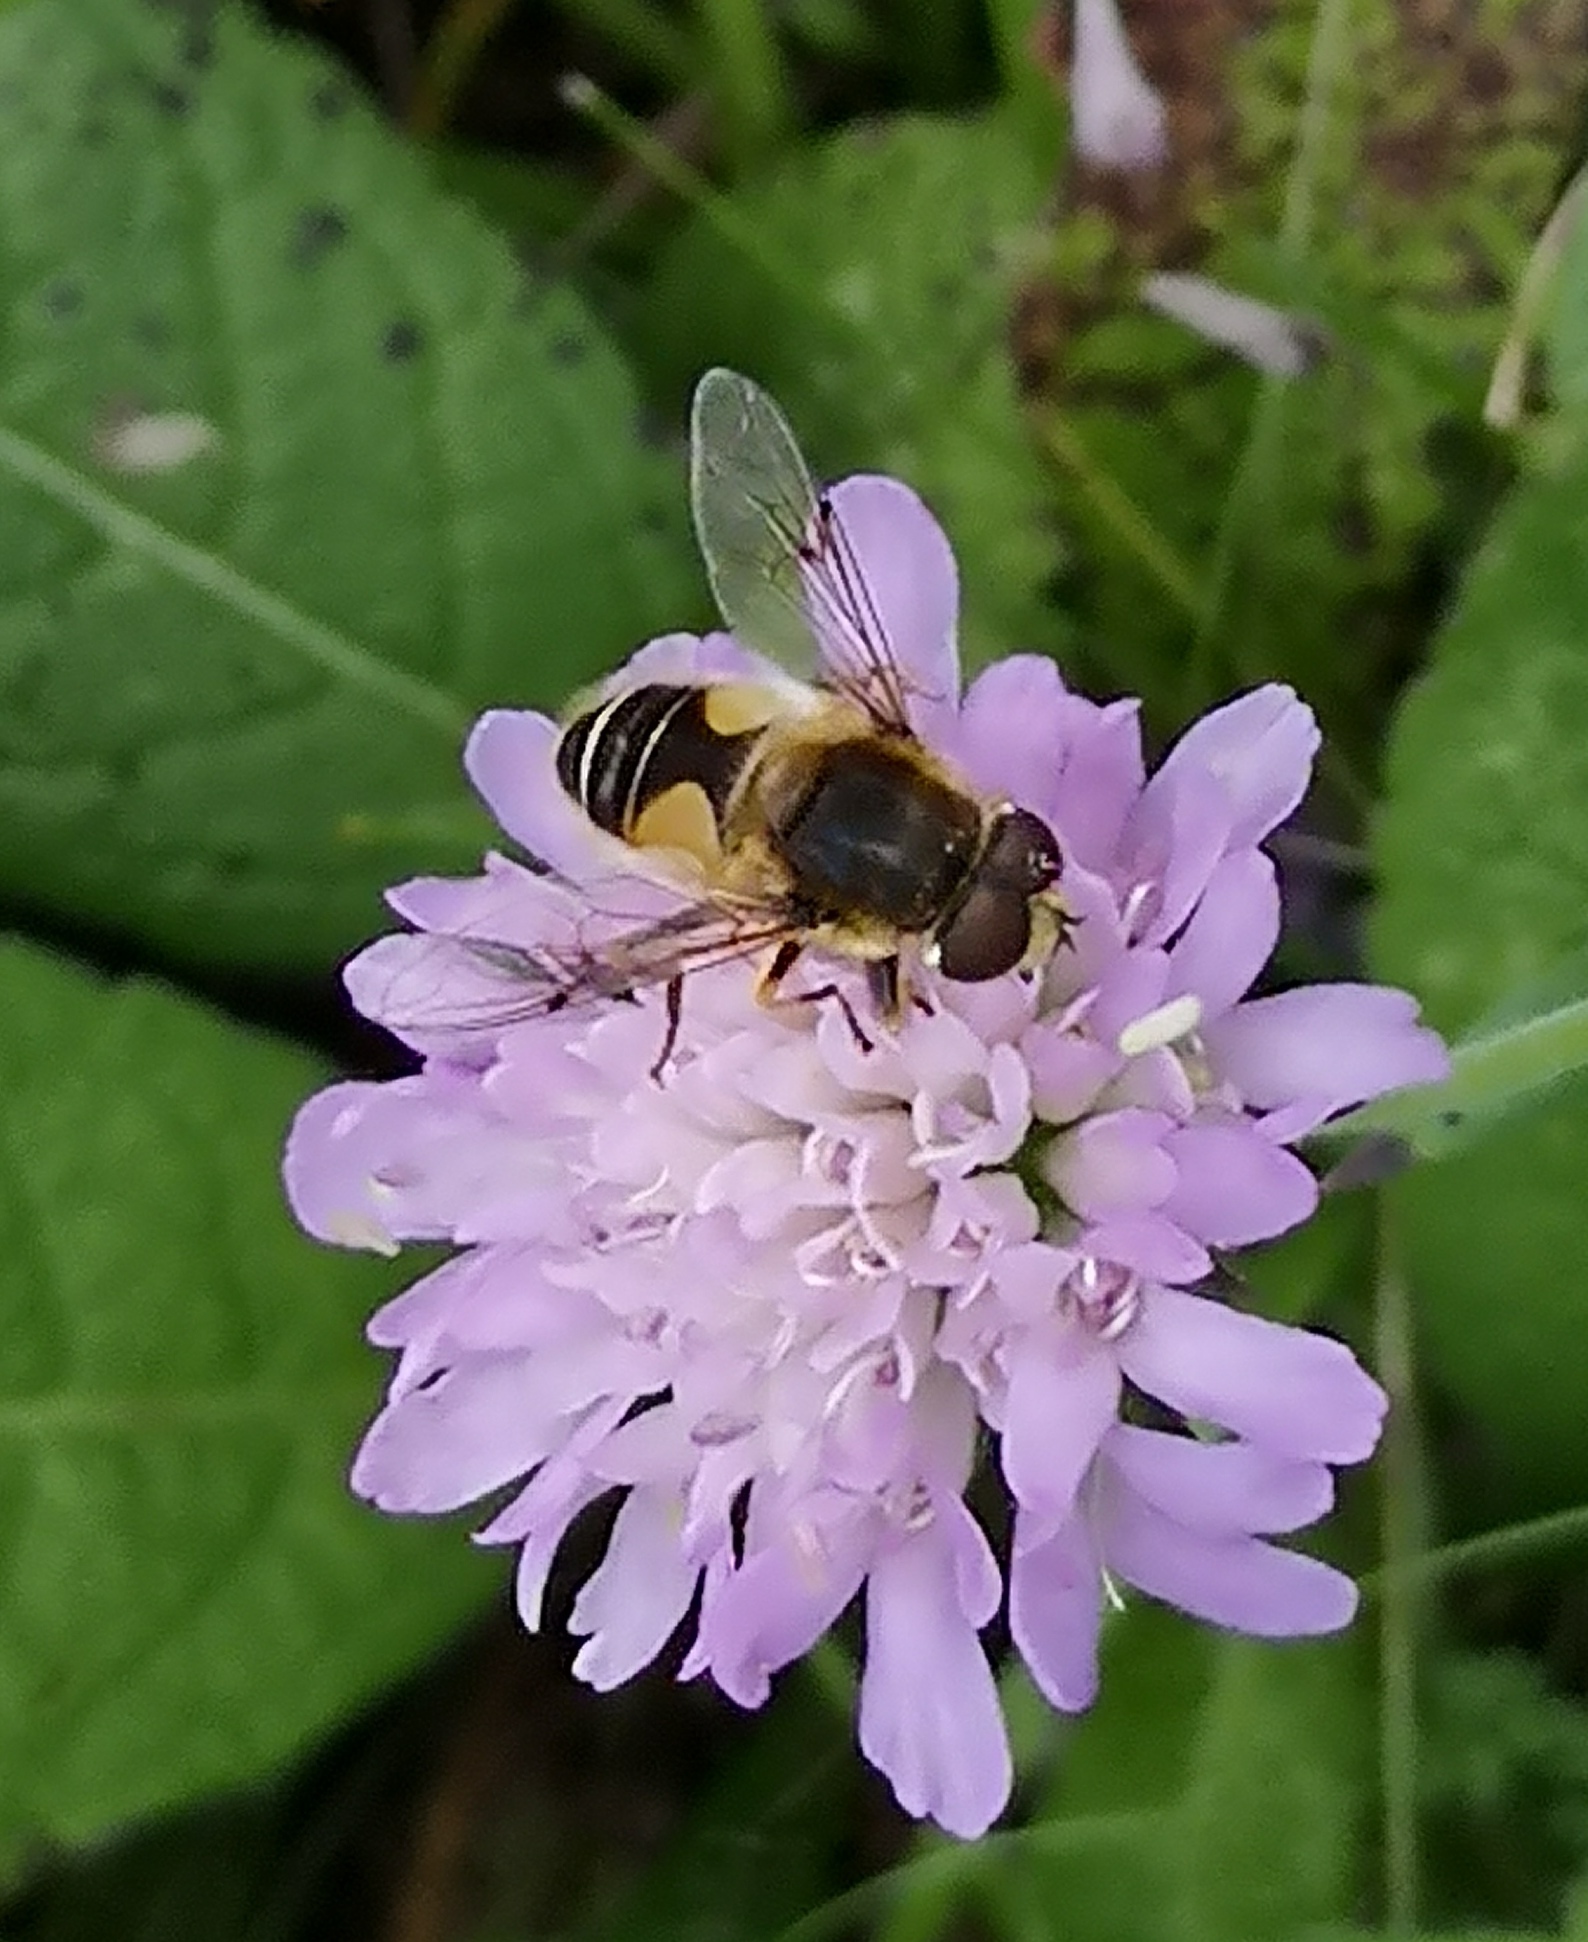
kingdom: Animalia
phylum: Arthropoda
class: Insecta
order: Diptera
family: Syrphidae
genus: Cheilosia
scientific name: Cheilosia morio
